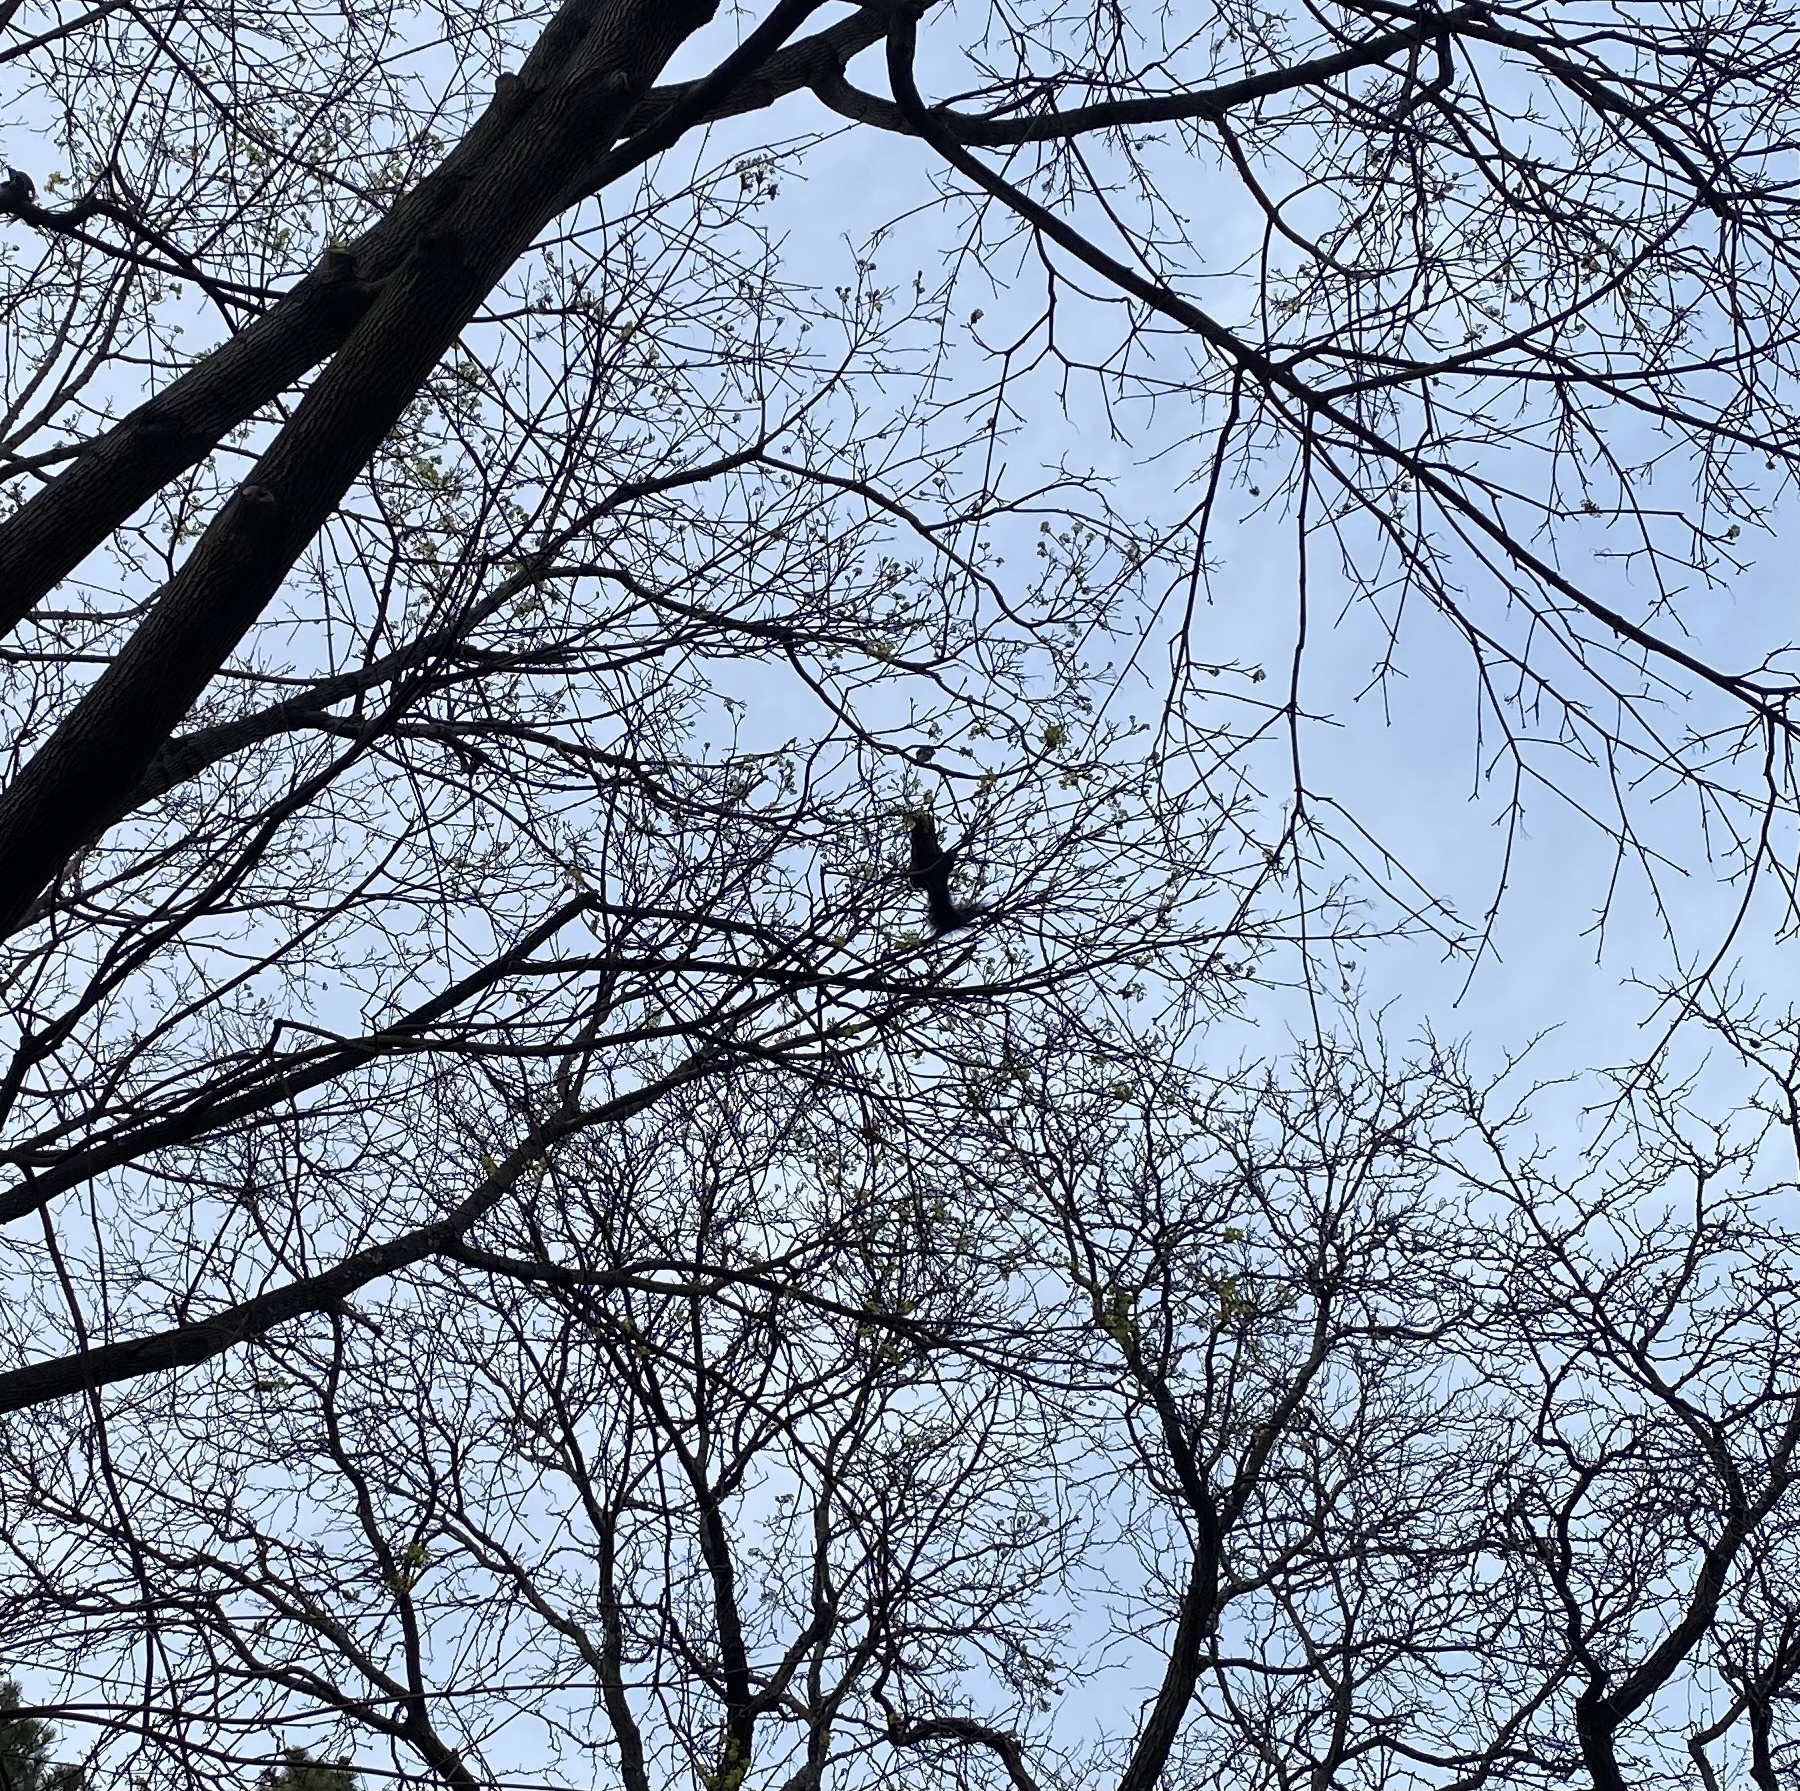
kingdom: Animalia
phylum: Chordata
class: Mammalia
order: Rodentia
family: Sciuridae
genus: Sciurus
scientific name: Sciurus carolinensis
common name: Eastern gray squirrel
